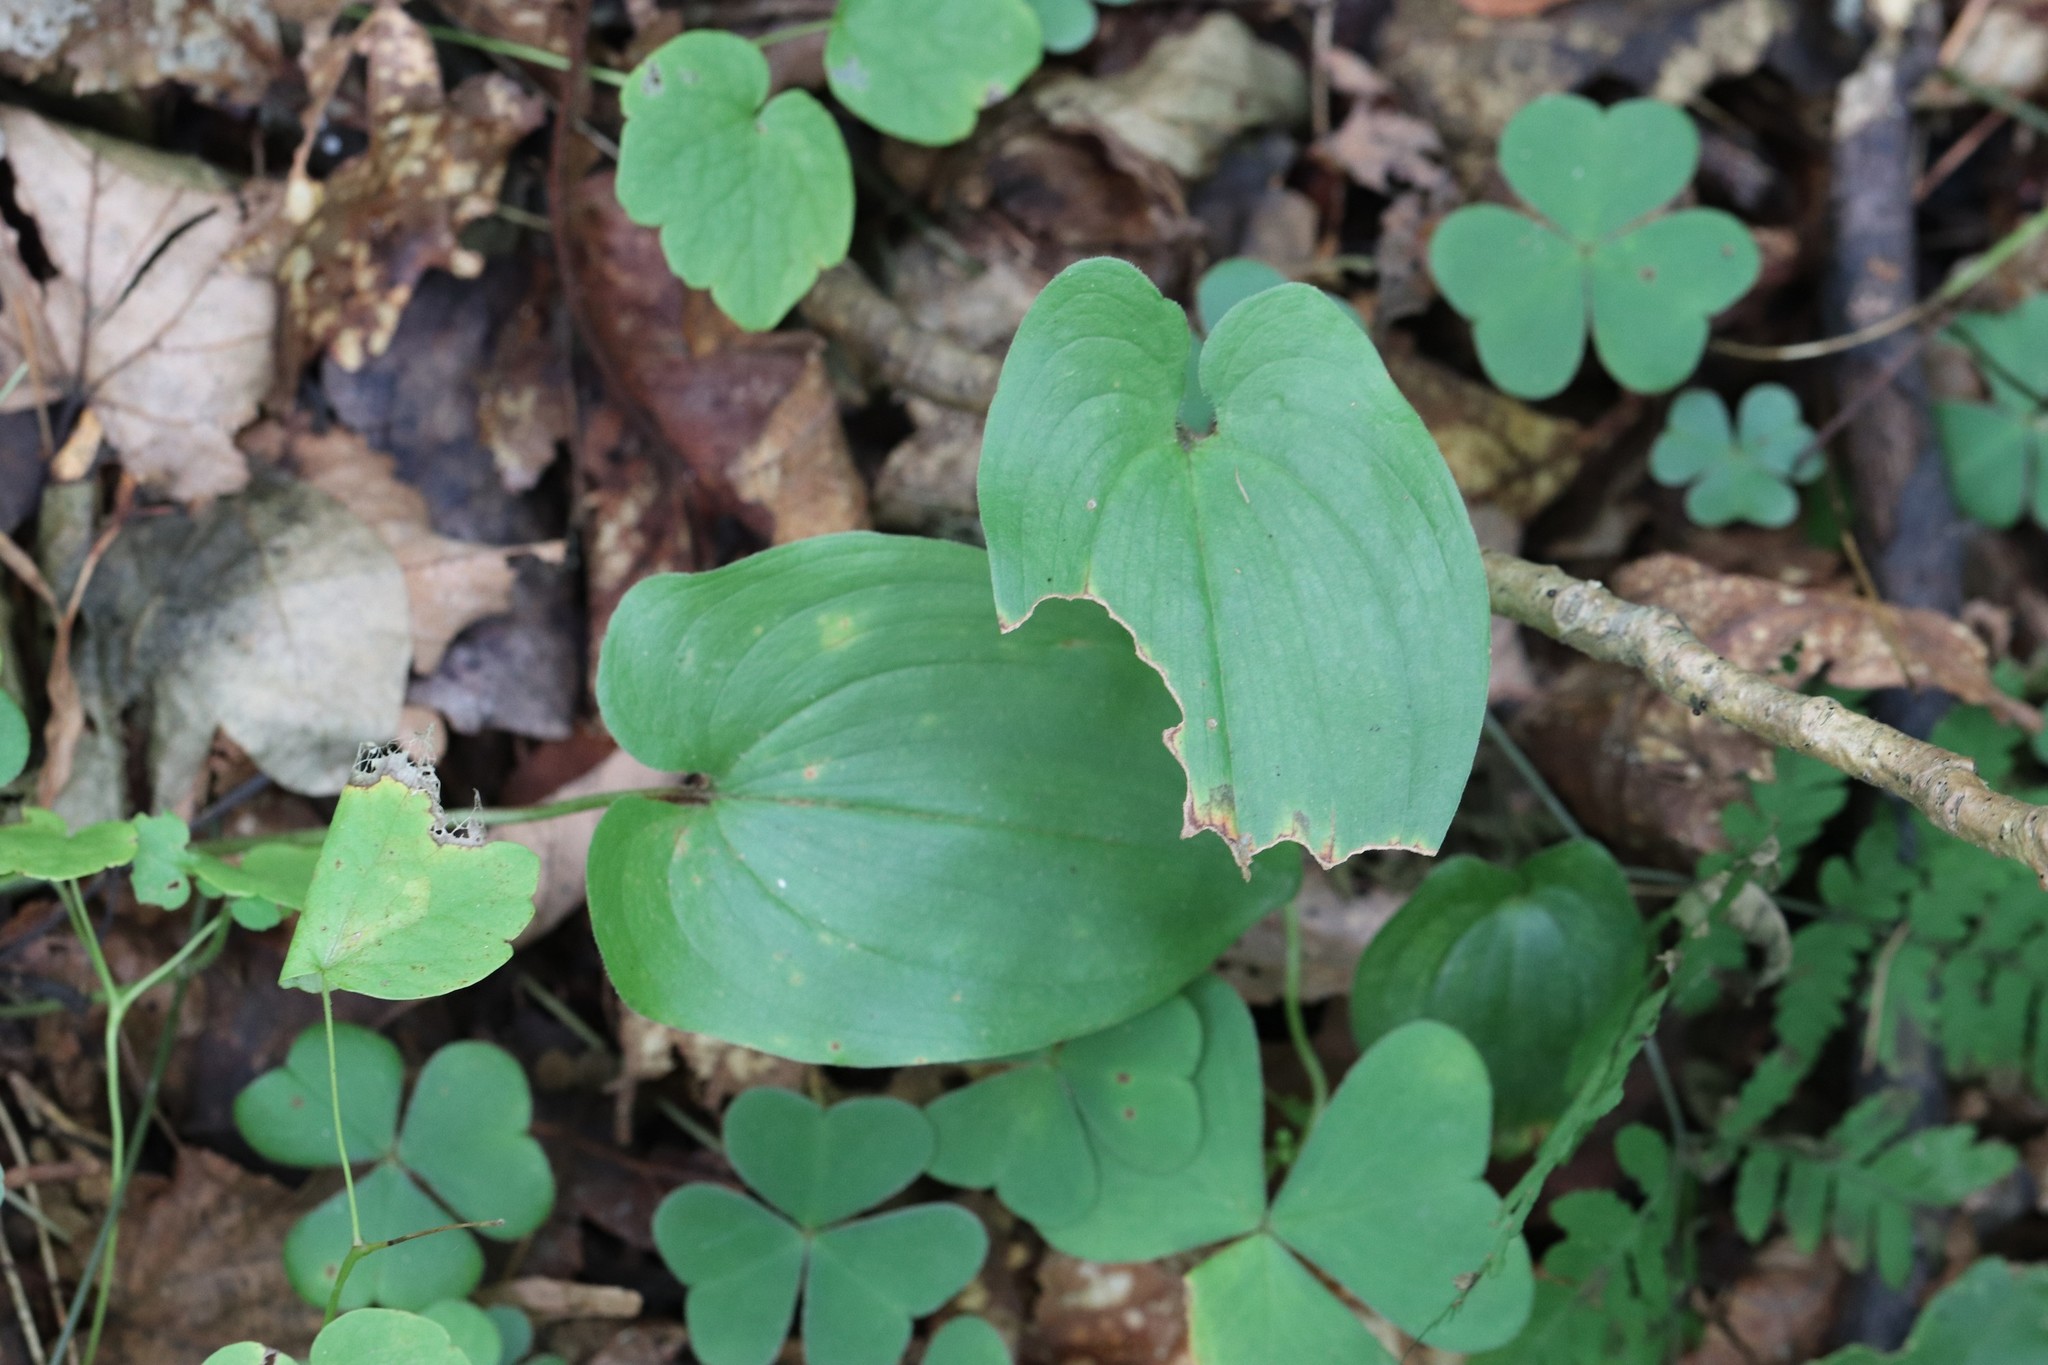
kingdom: Plantae
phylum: Tracheophyta
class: Liliopsida
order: Asparagales
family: Asparagaceae
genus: Maianthemum
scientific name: Maianthemum dilatatum
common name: False lily-of-the-valley
